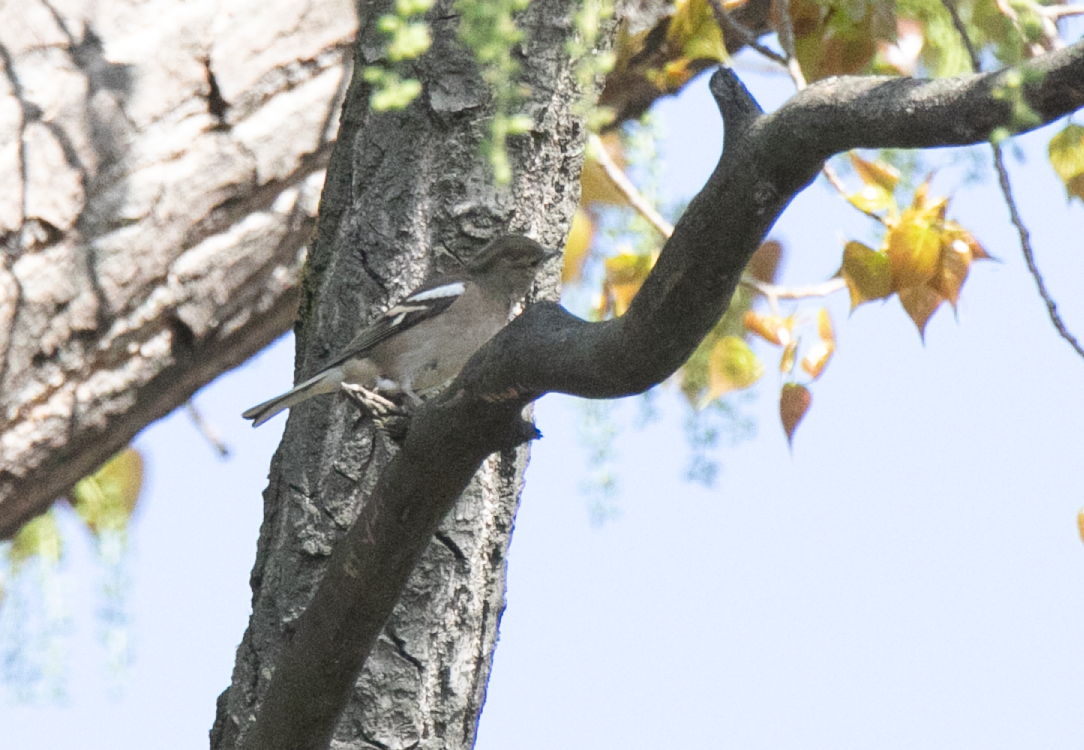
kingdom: Animalia
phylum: Chordata
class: Aves
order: Passeriformes
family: Fringillidae
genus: Fringilla
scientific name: Fringilla coelebs
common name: Common chaffinch
